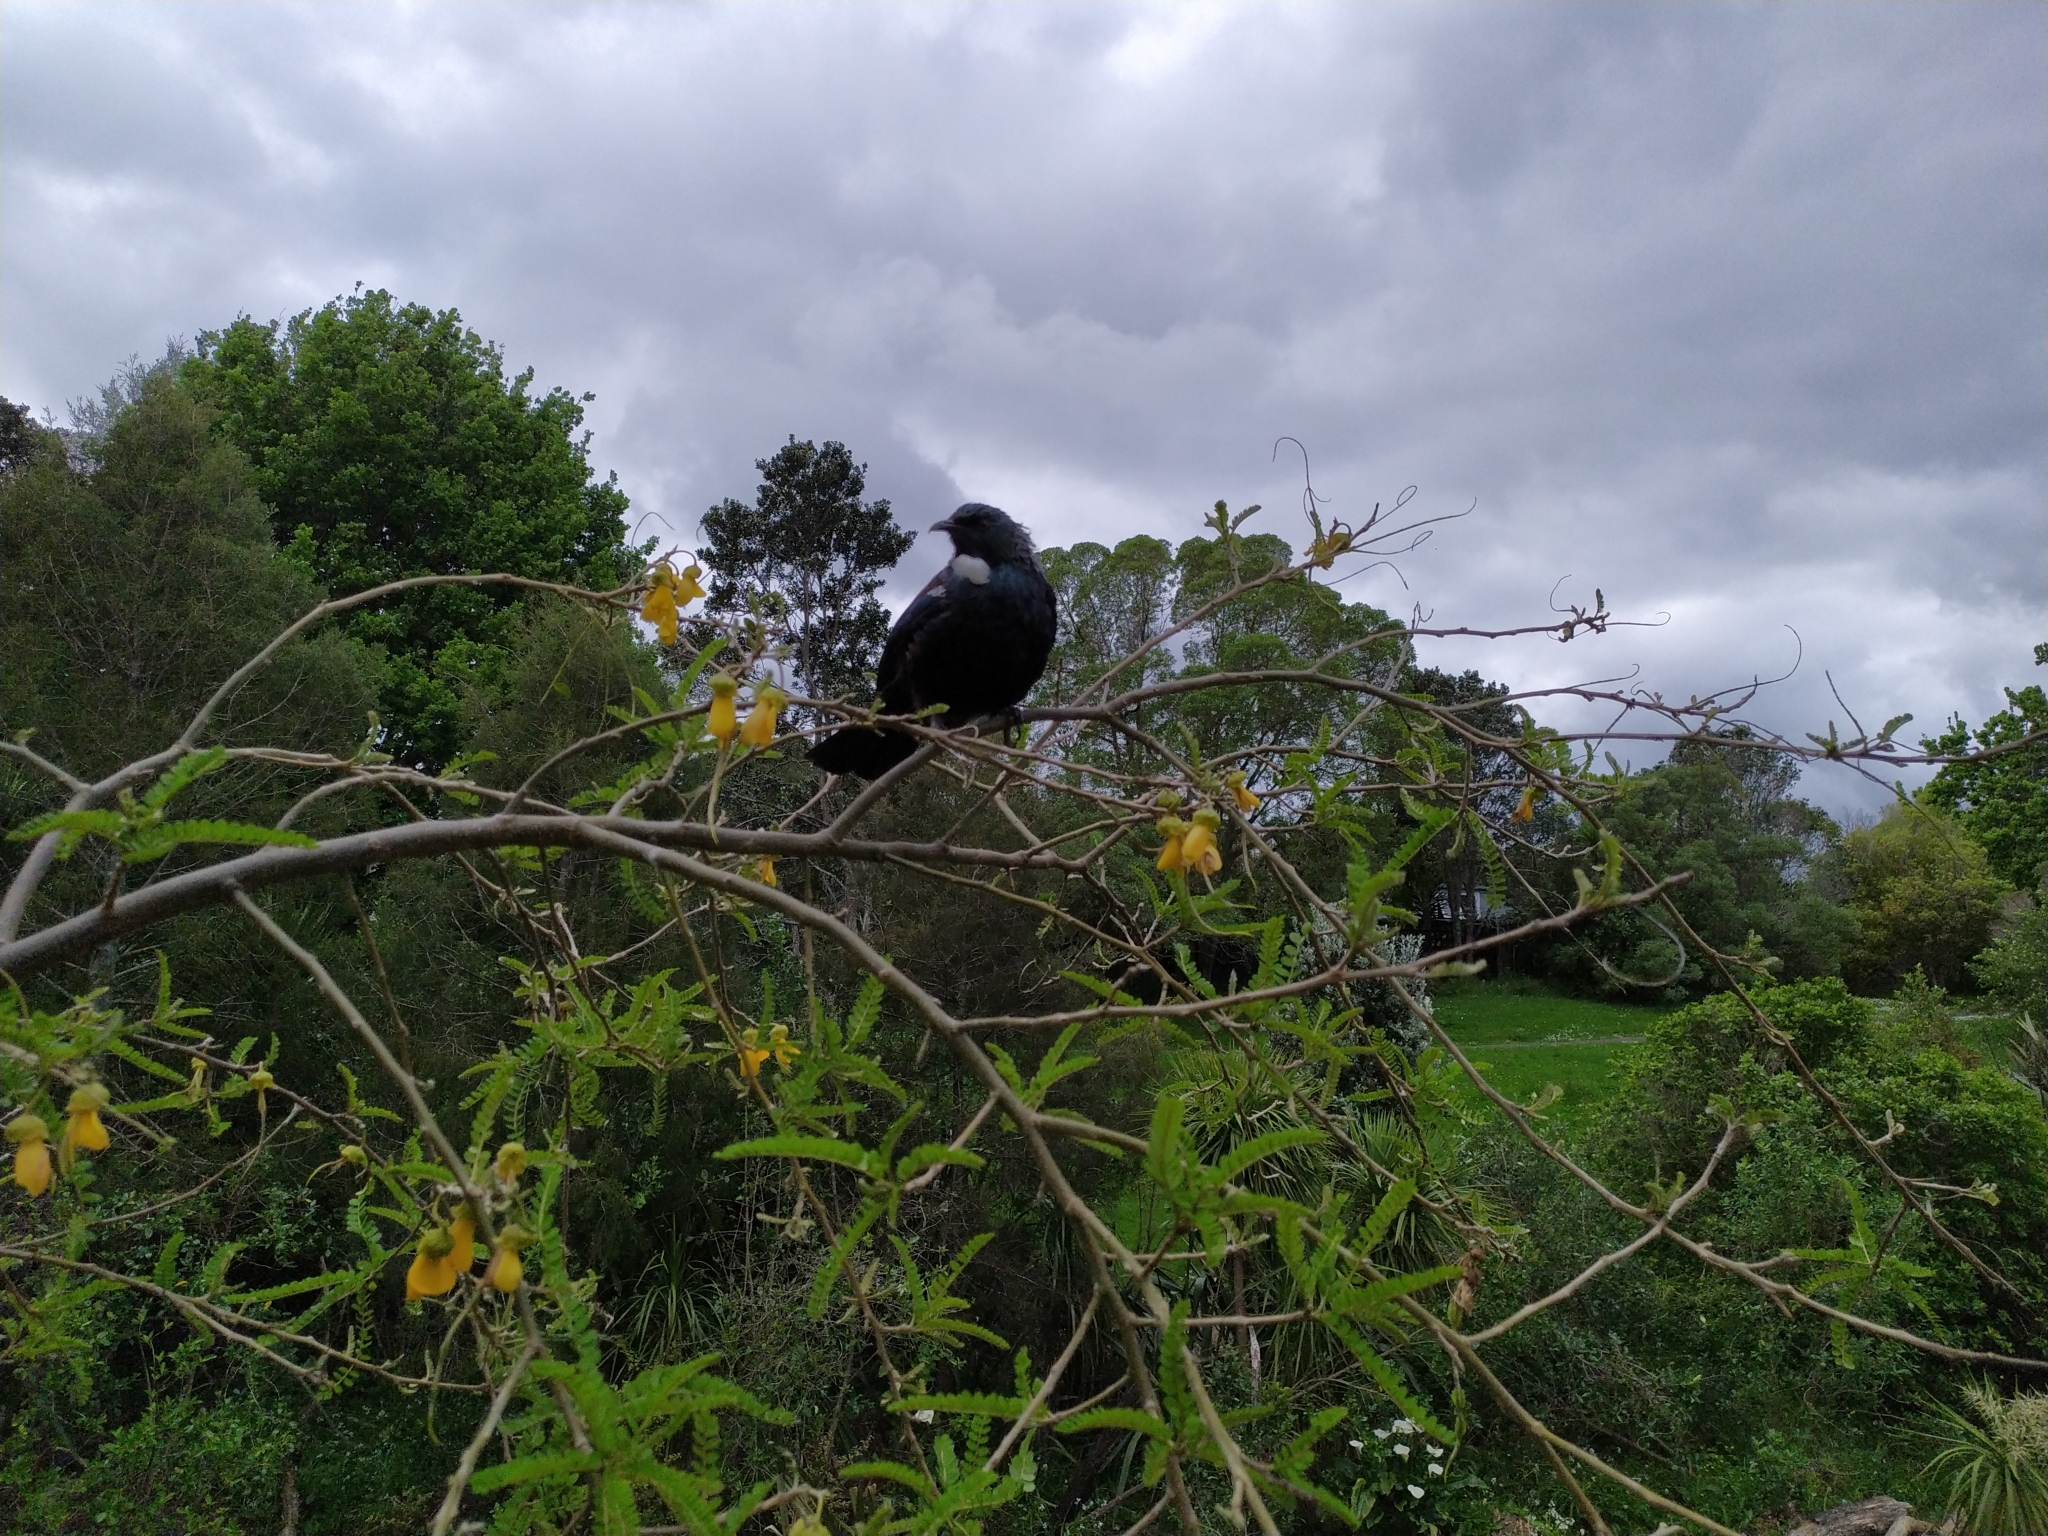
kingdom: Animalia
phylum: Chordata
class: Aves
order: Passeriformes
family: Meliphagidae
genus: Prosthemadera
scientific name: Prosthemadera novaeseelandiae
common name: Tui
